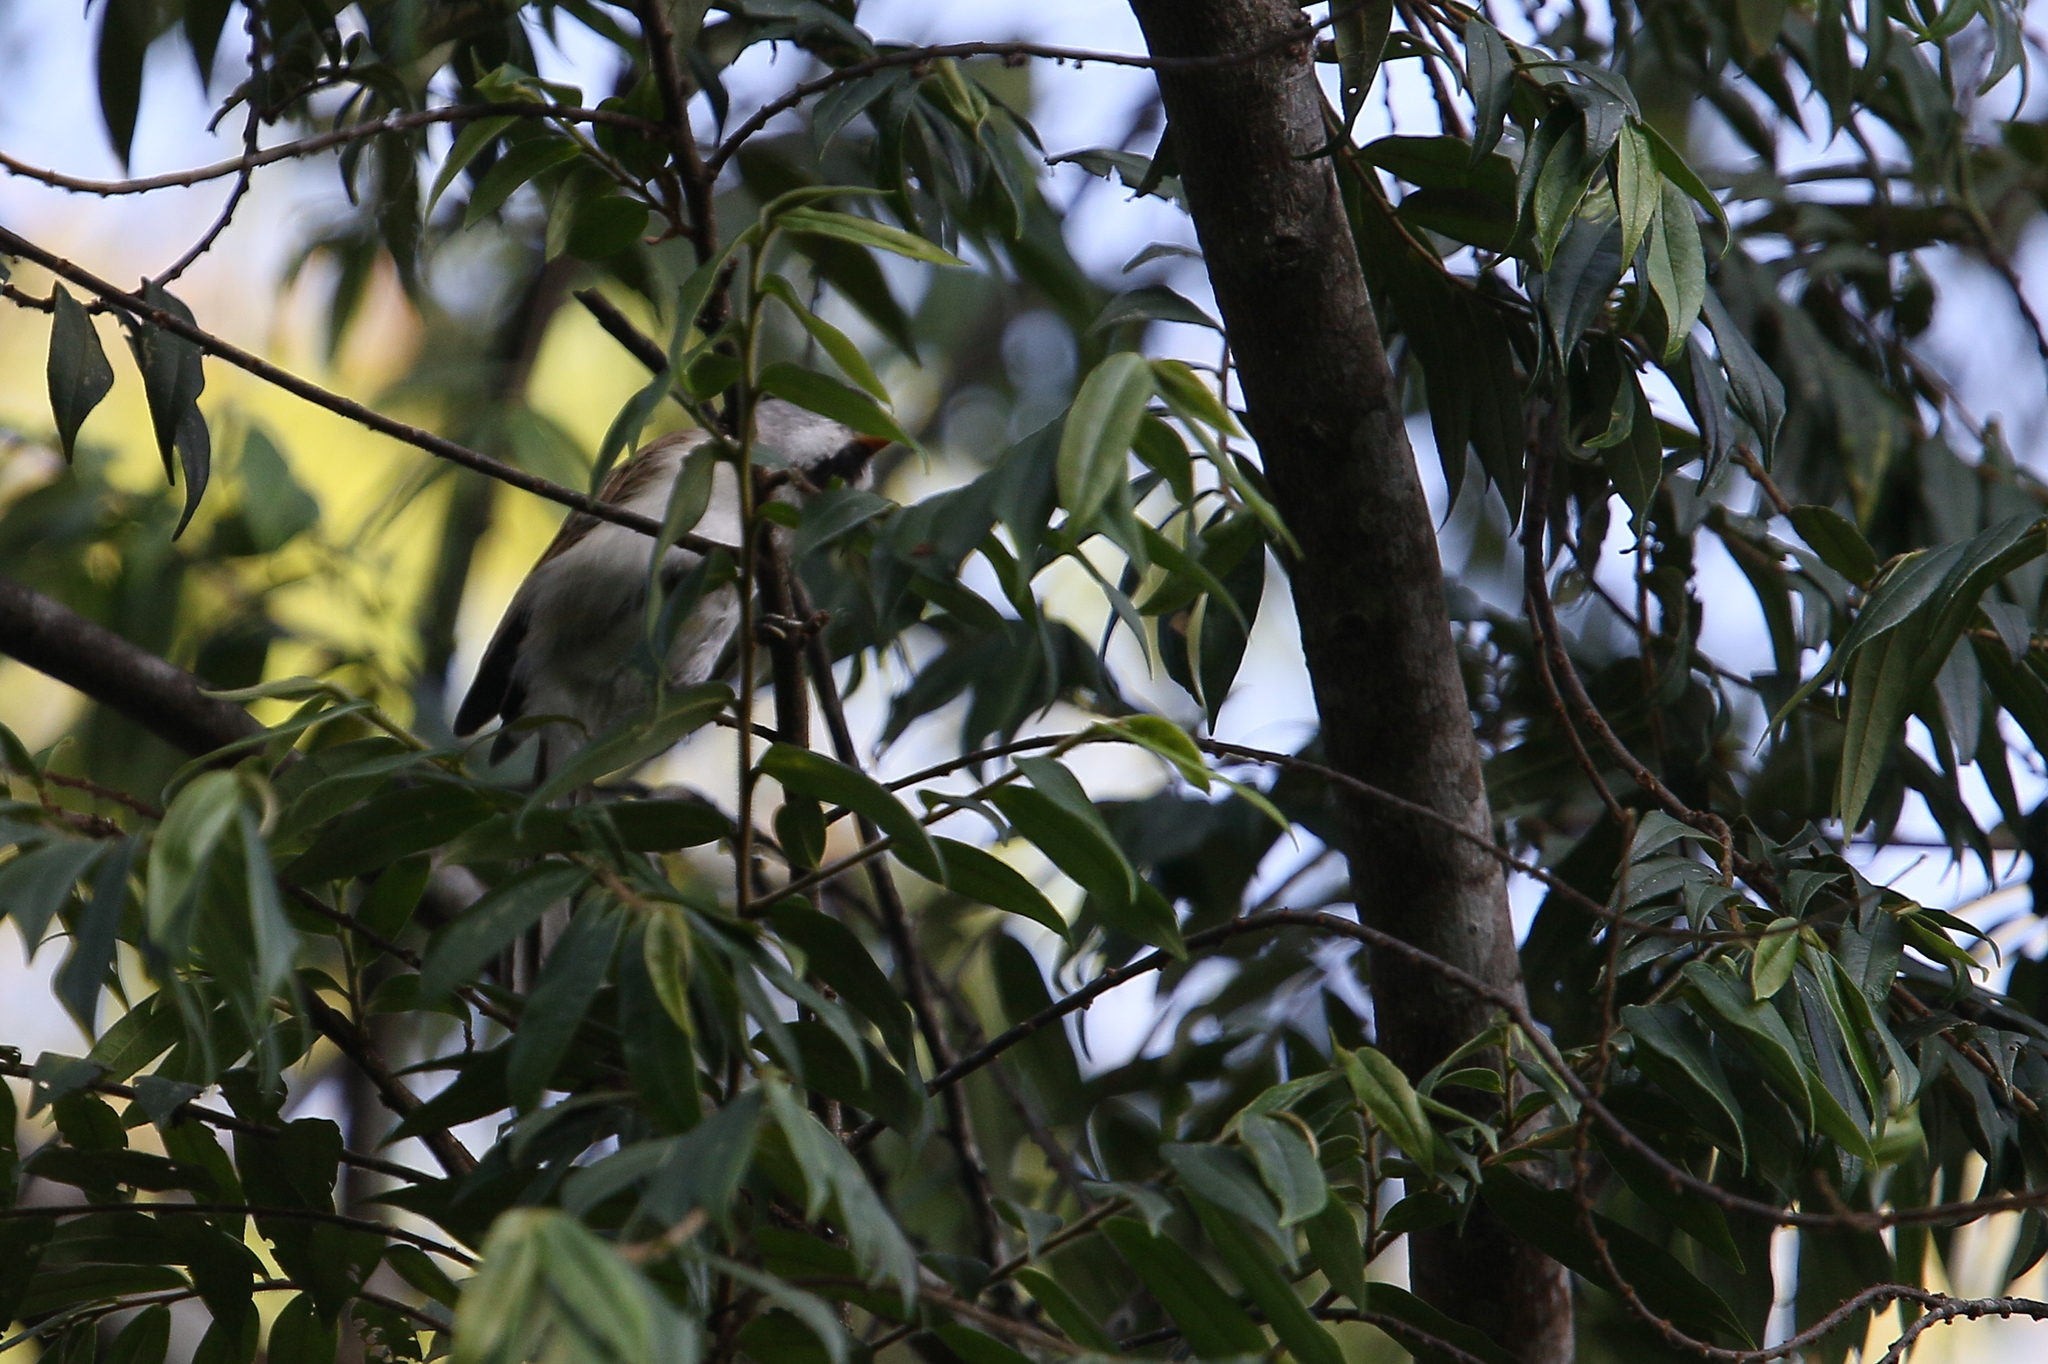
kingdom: Animalia
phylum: Chordata
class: Aves
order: Passeriformes
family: Sylviidae
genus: Psittiparus
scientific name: Psittiparus gularis
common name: Gray-headed parrotbill
